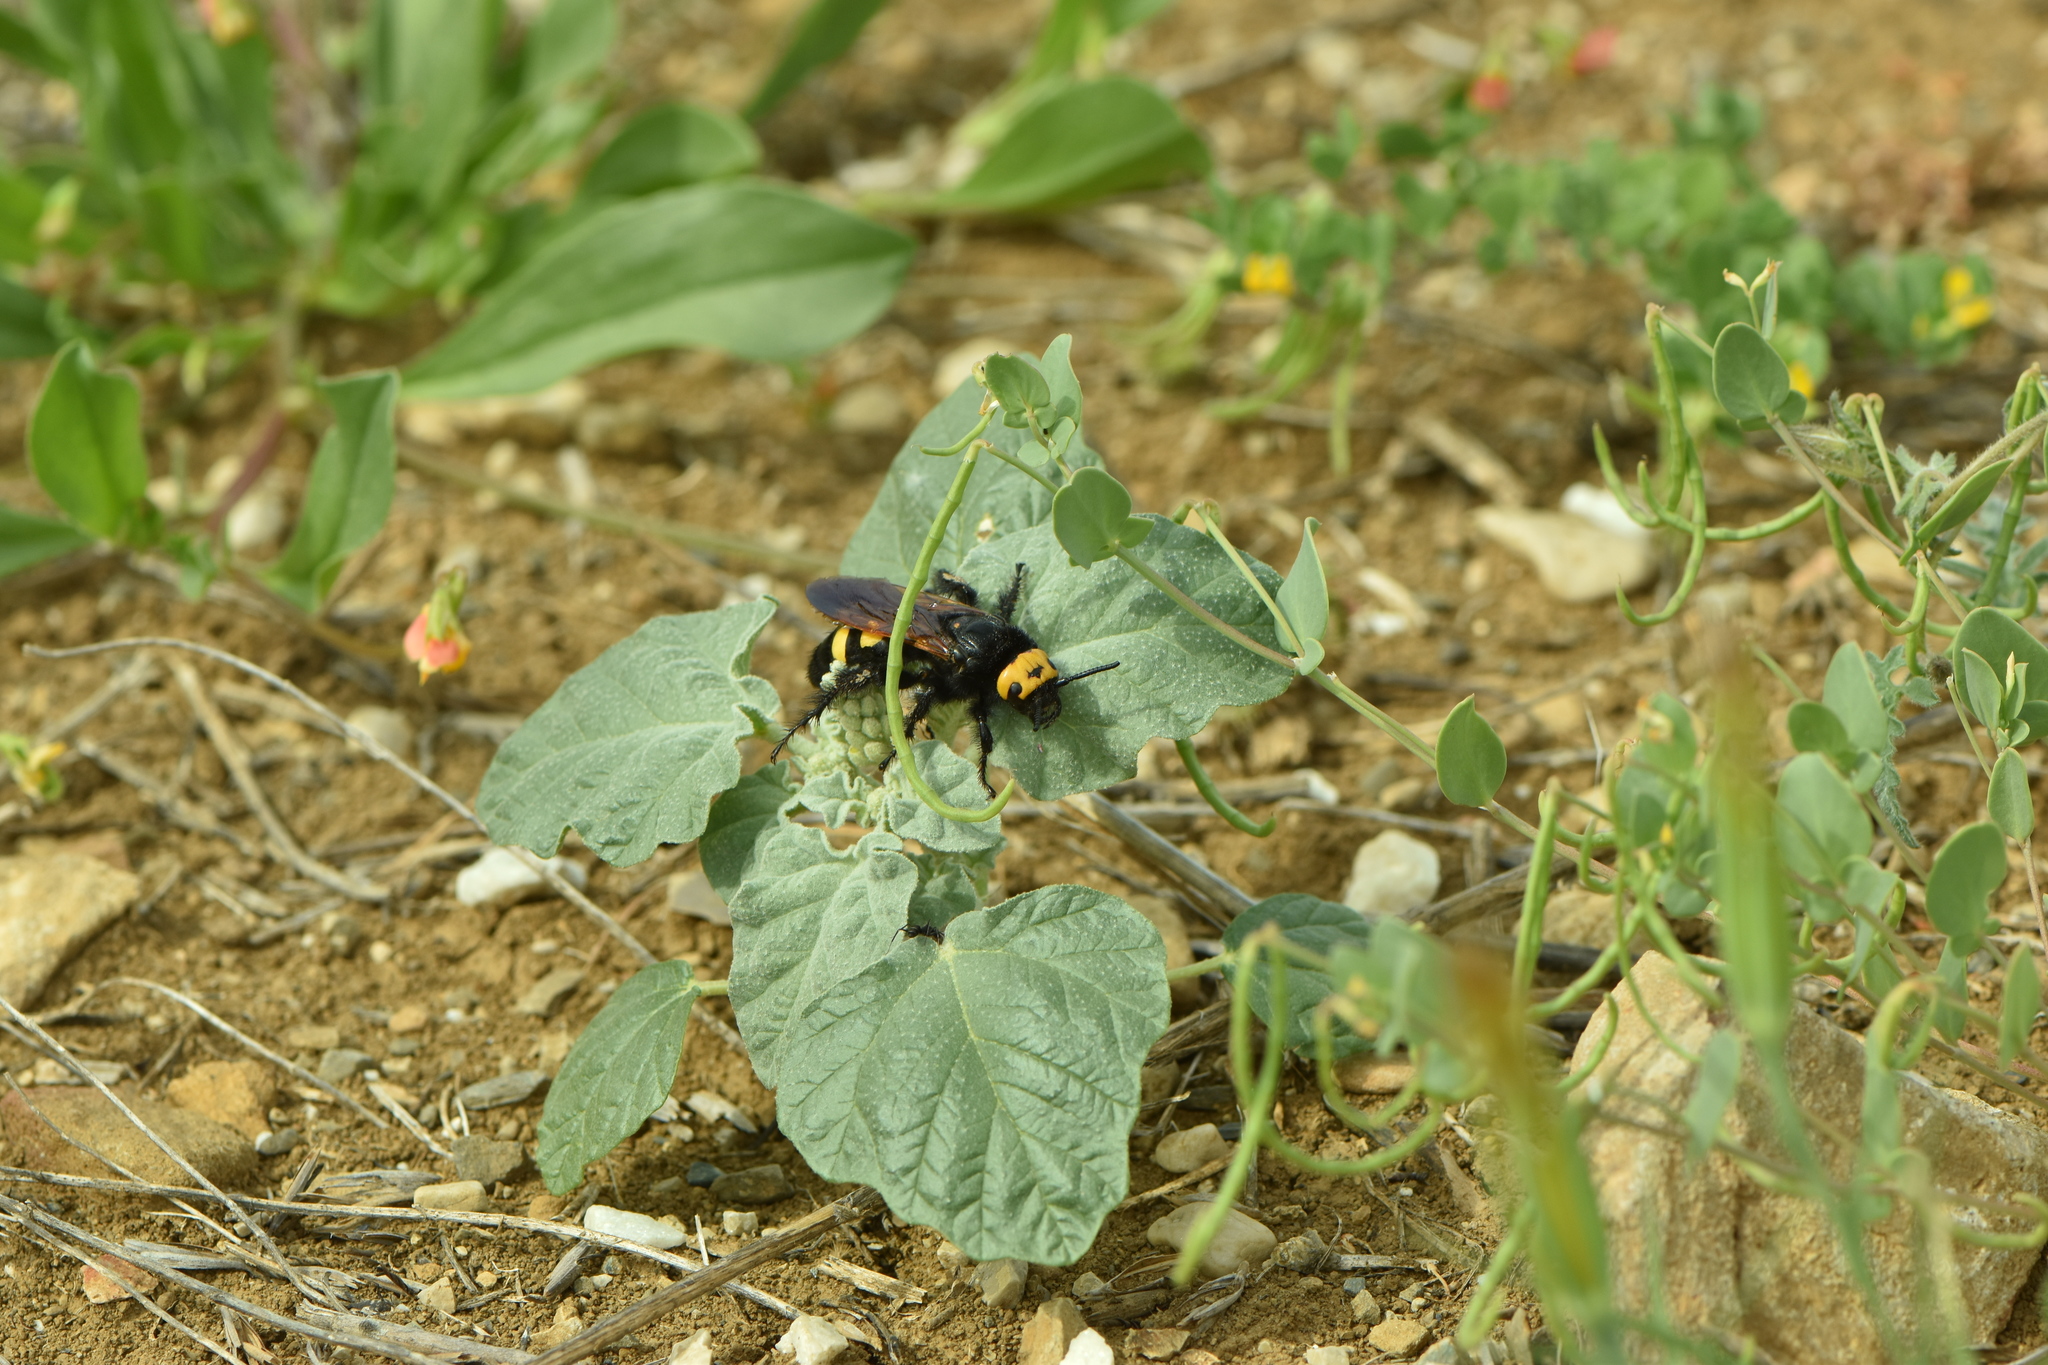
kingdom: Animalia
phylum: Arthropoda
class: Insecta
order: Hymenoptera
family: Scoliidae
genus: Megascolia
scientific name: Megascolia maculata
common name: Mammoth wasp
